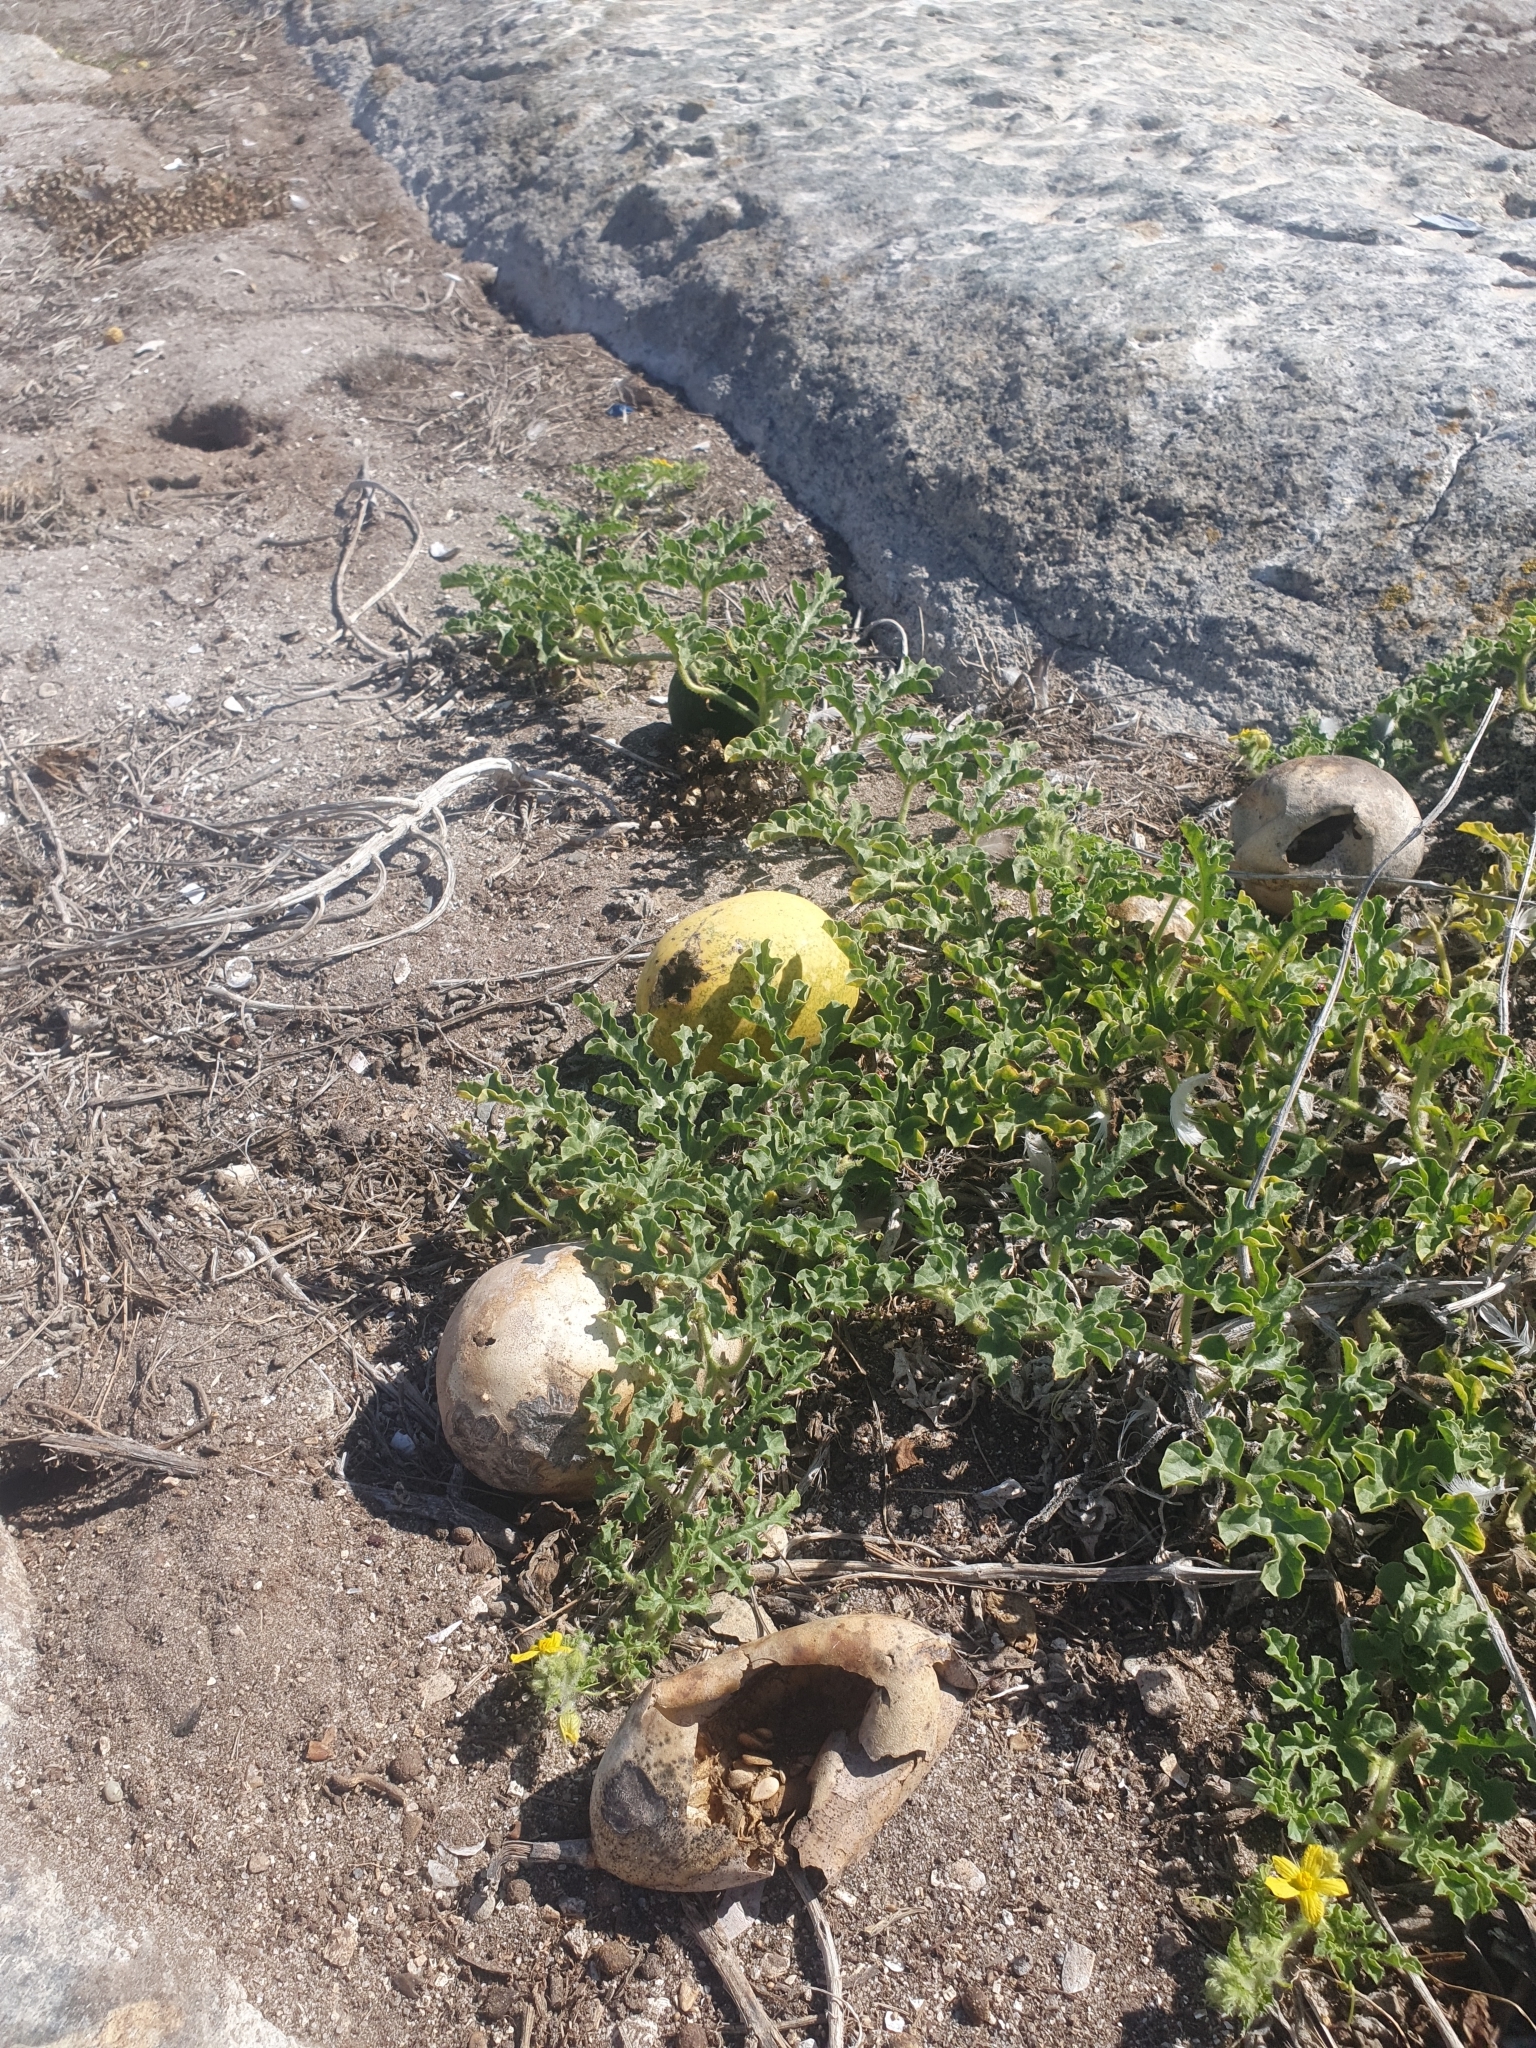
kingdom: Plantae
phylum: Tracheophyta
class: Magnoliopsida
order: Cucurbitales
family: Cucurbitaceae
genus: Citrullus
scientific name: Citrullus amarus
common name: Fodder-melon
